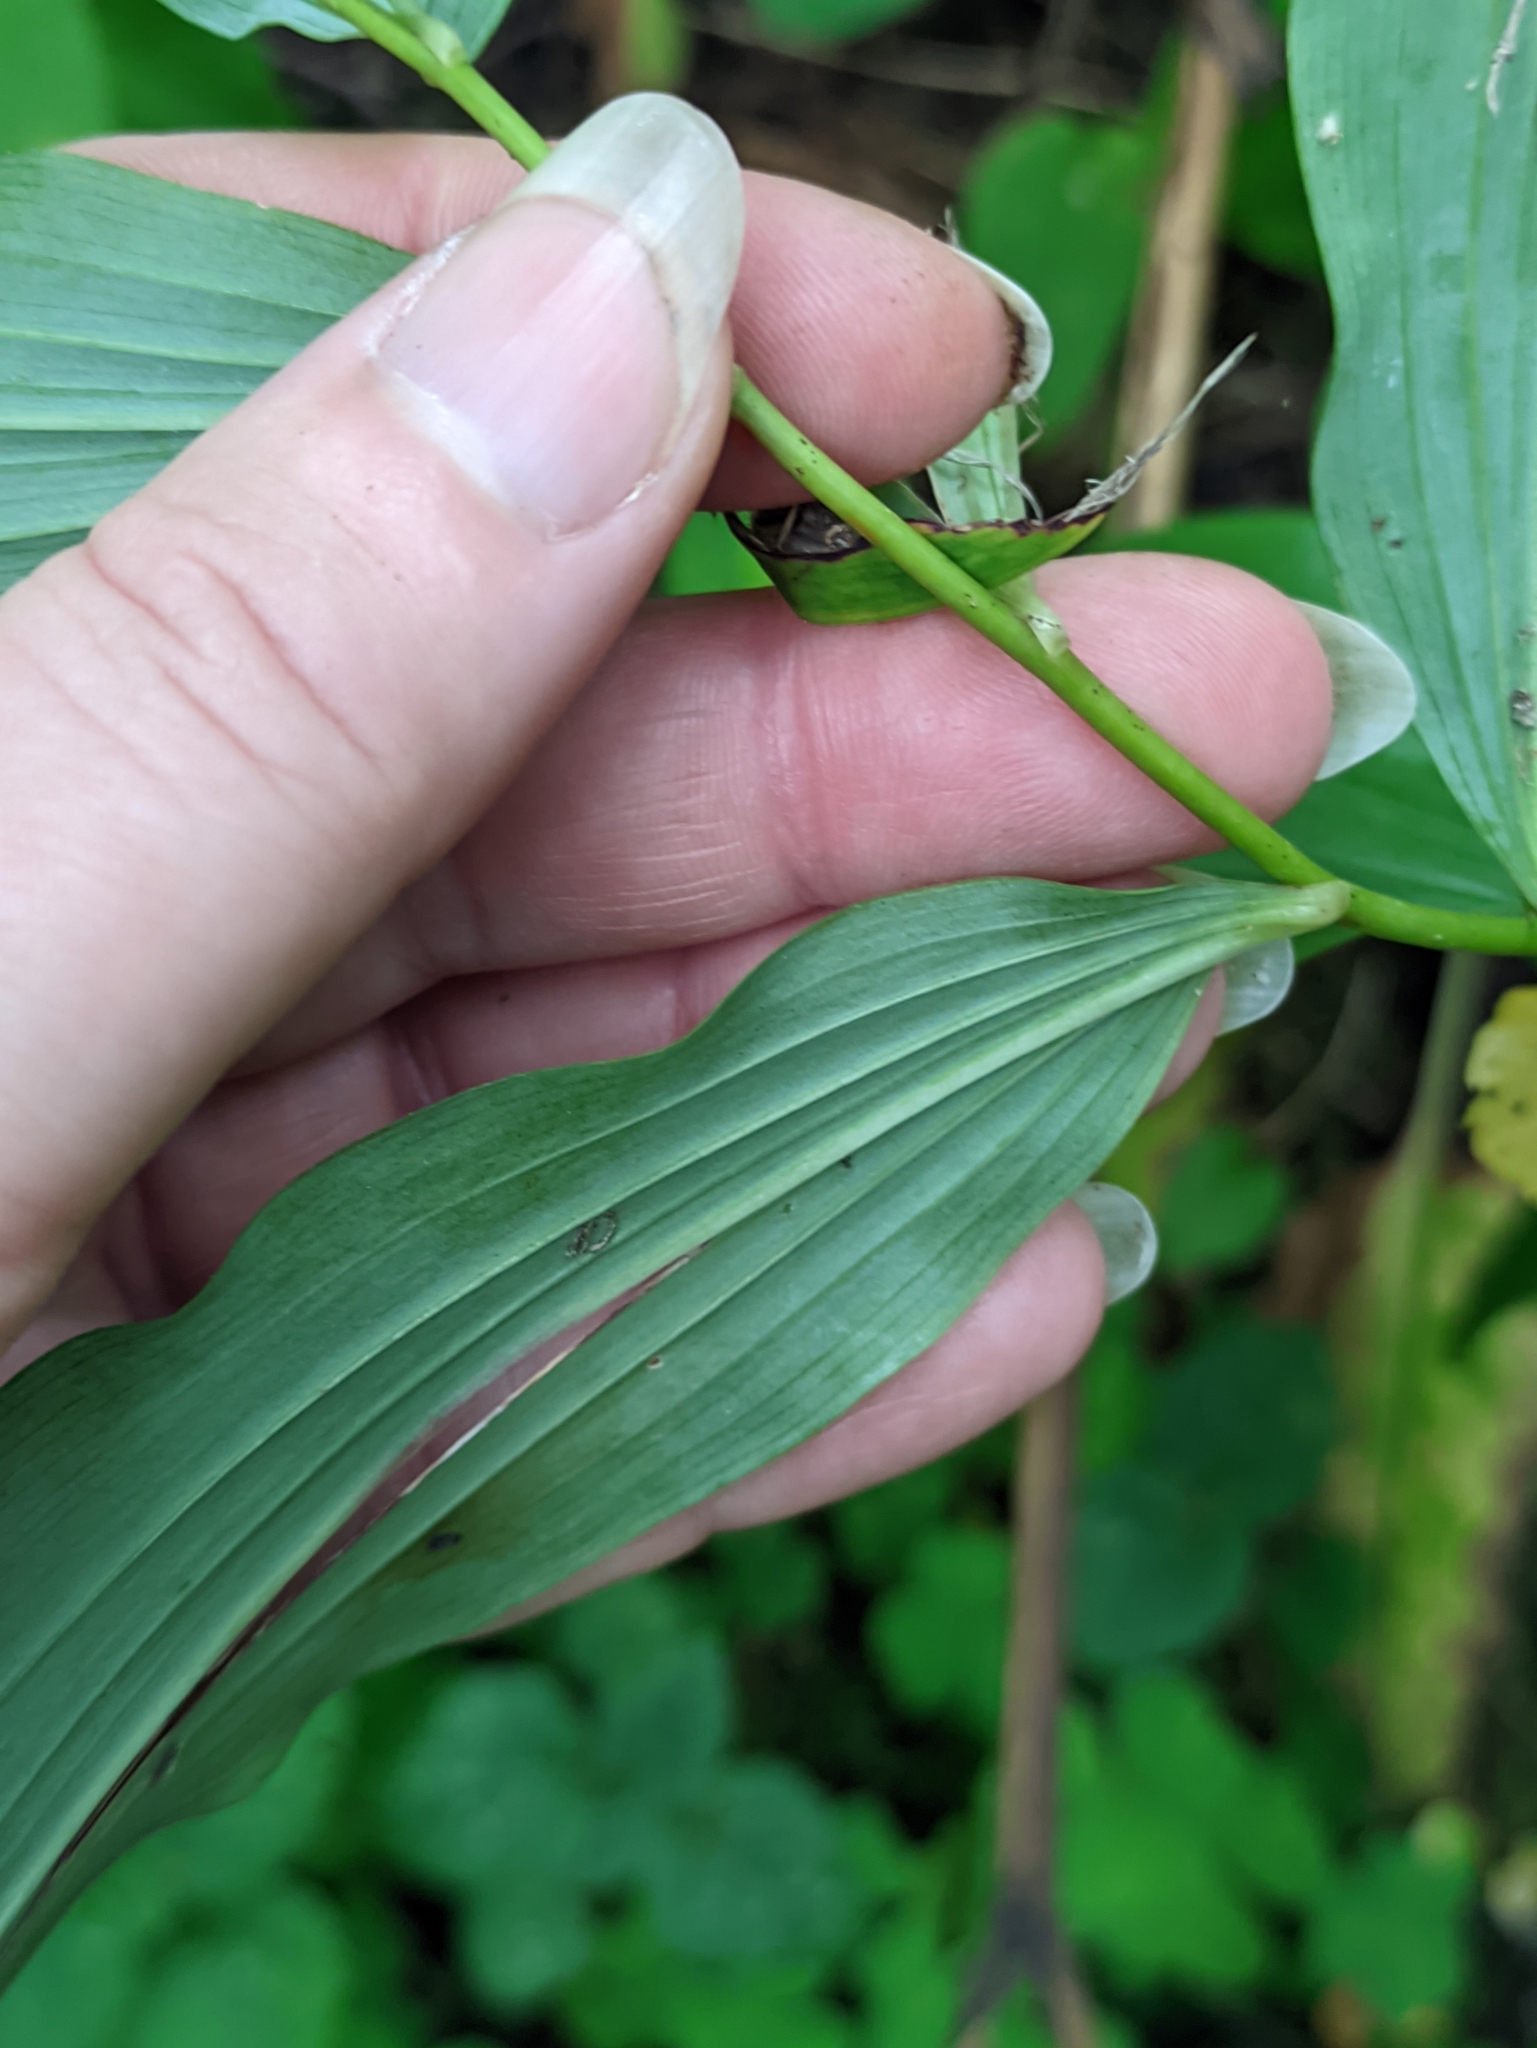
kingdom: Plantae
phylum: Tracheophyta
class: Liliopsida
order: Asparagales
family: Asparagaceae
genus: Polygonatum
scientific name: Polygonatum multiflorum
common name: Solomon's-seal
